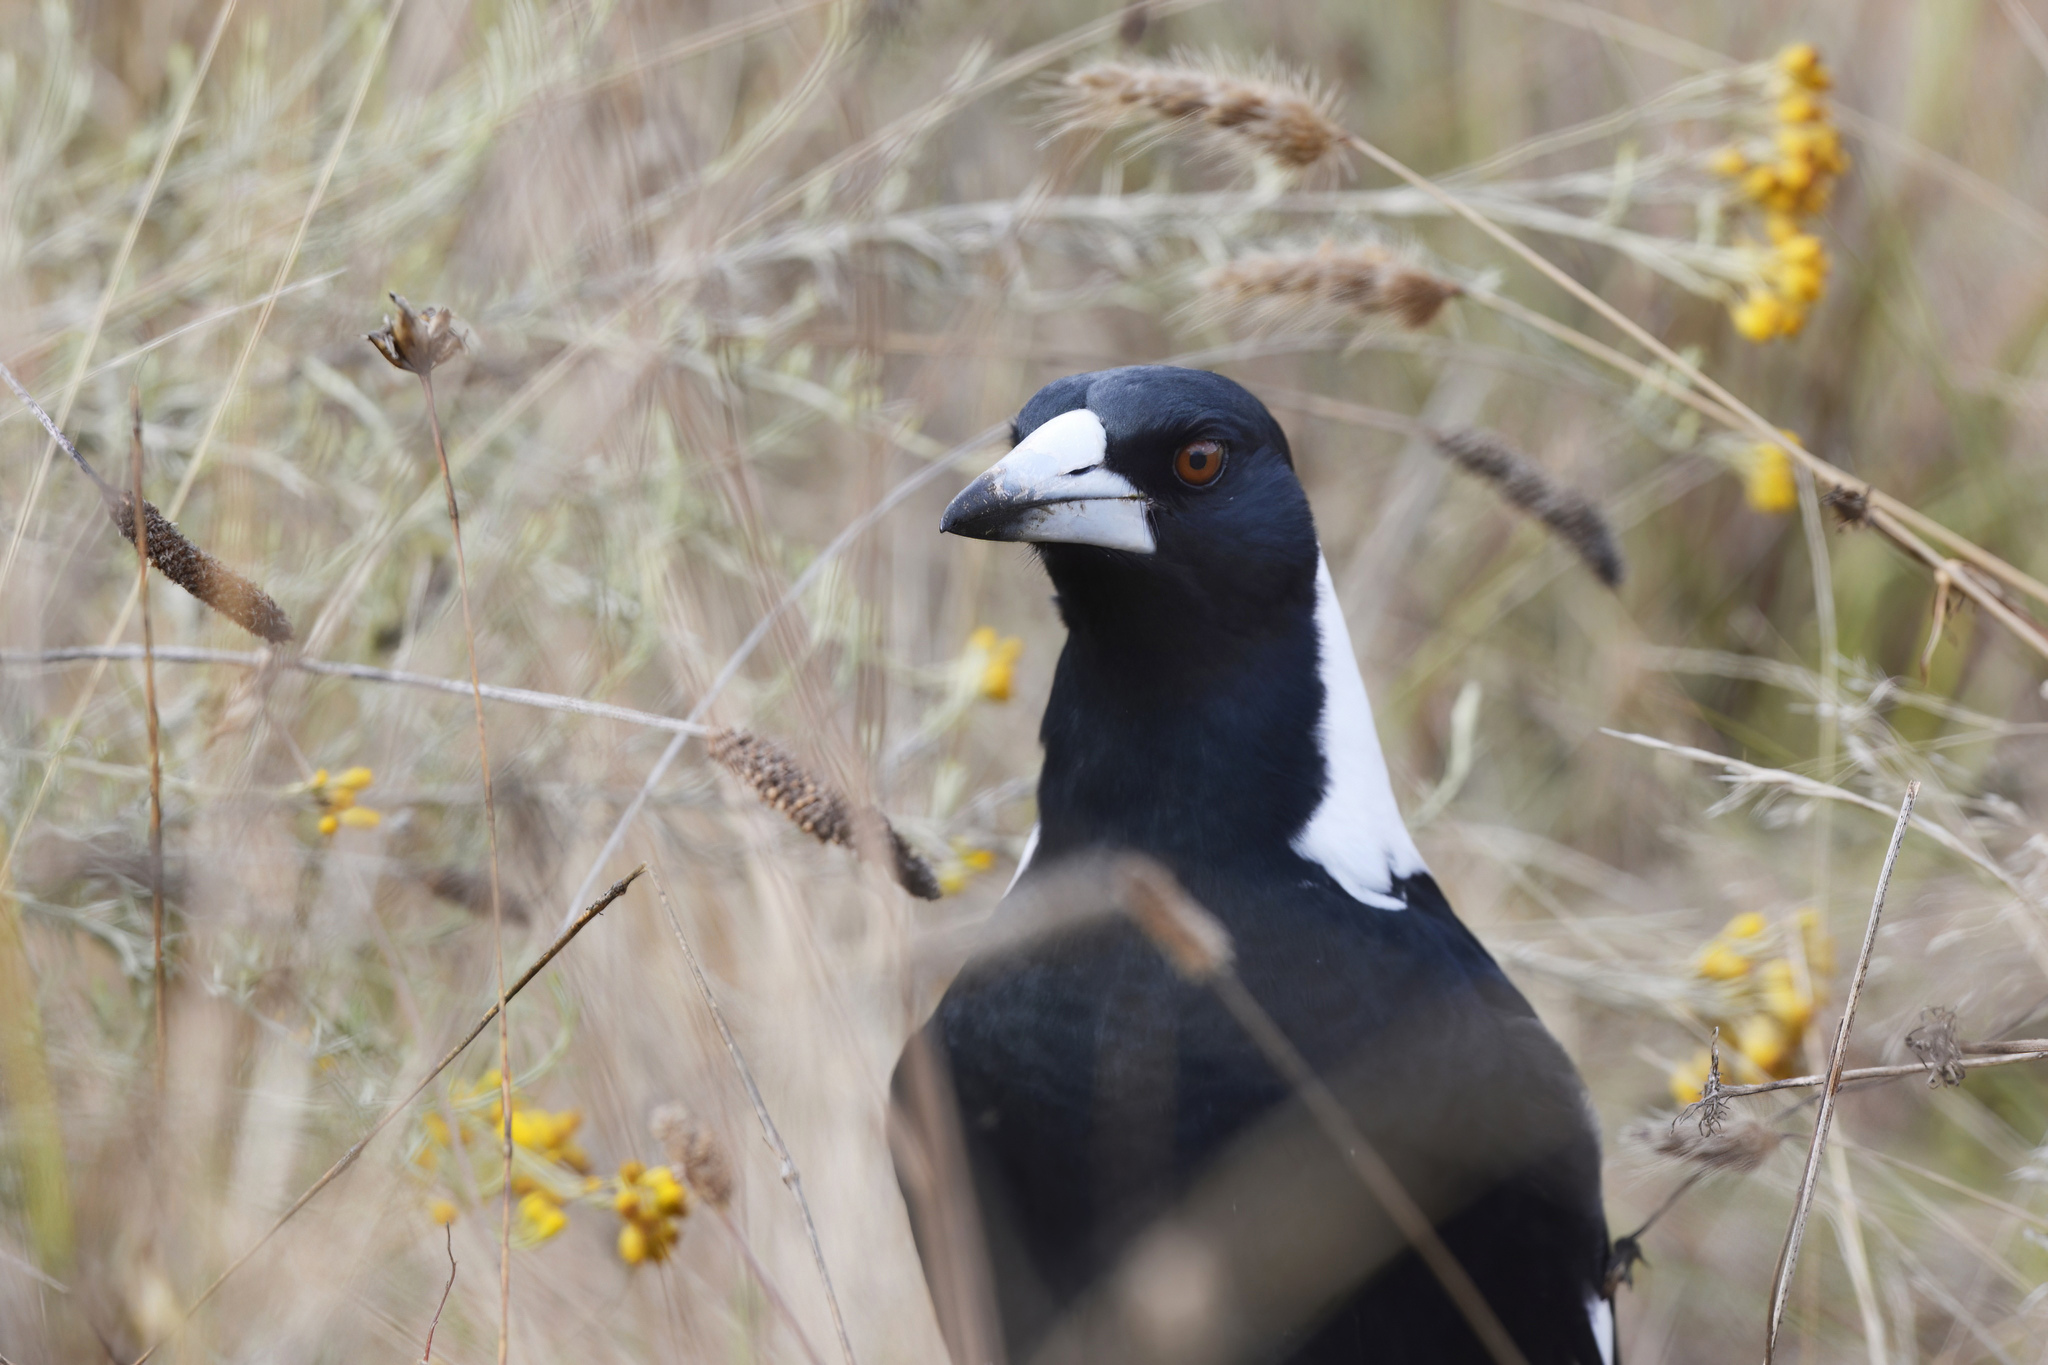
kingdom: Animalia
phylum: Chordata
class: Aves
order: Passeriformes
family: Cracticidae
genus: Gymnorhina
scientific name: Gymnorhina tibicen
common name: Australian magpie
